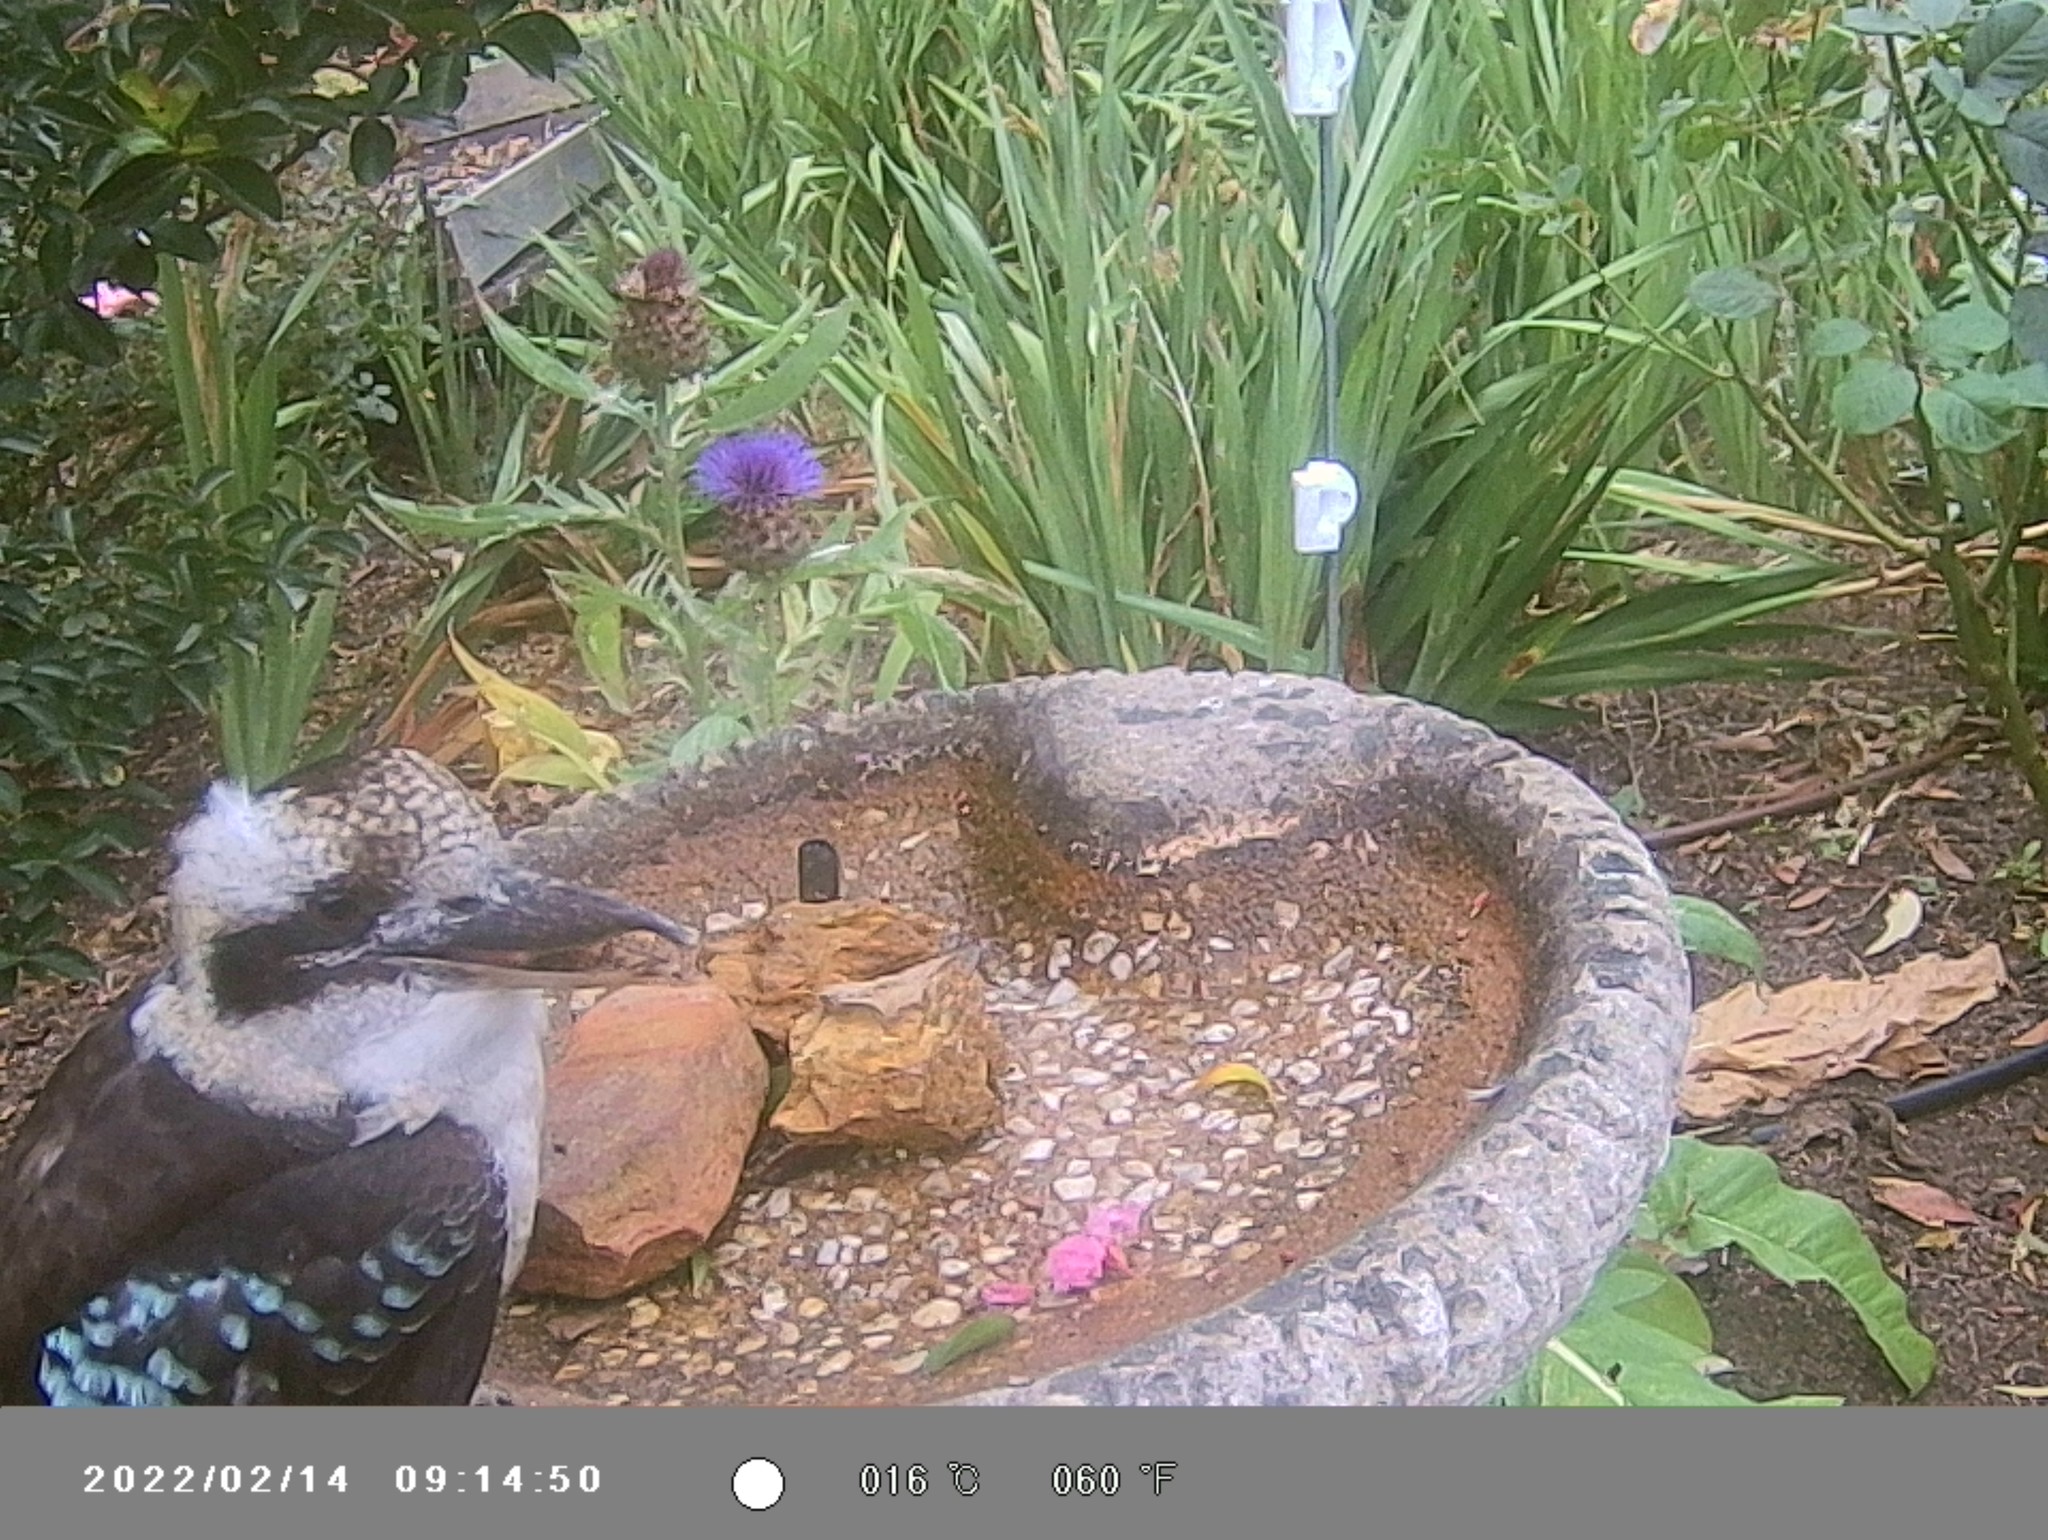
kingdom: Animalia
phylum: Chordata
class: Aves
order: Coraciiformes
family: Alcedinidae
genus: Dacelo
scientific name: Dacelo novaeguineae
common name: Laughing kookaburra
